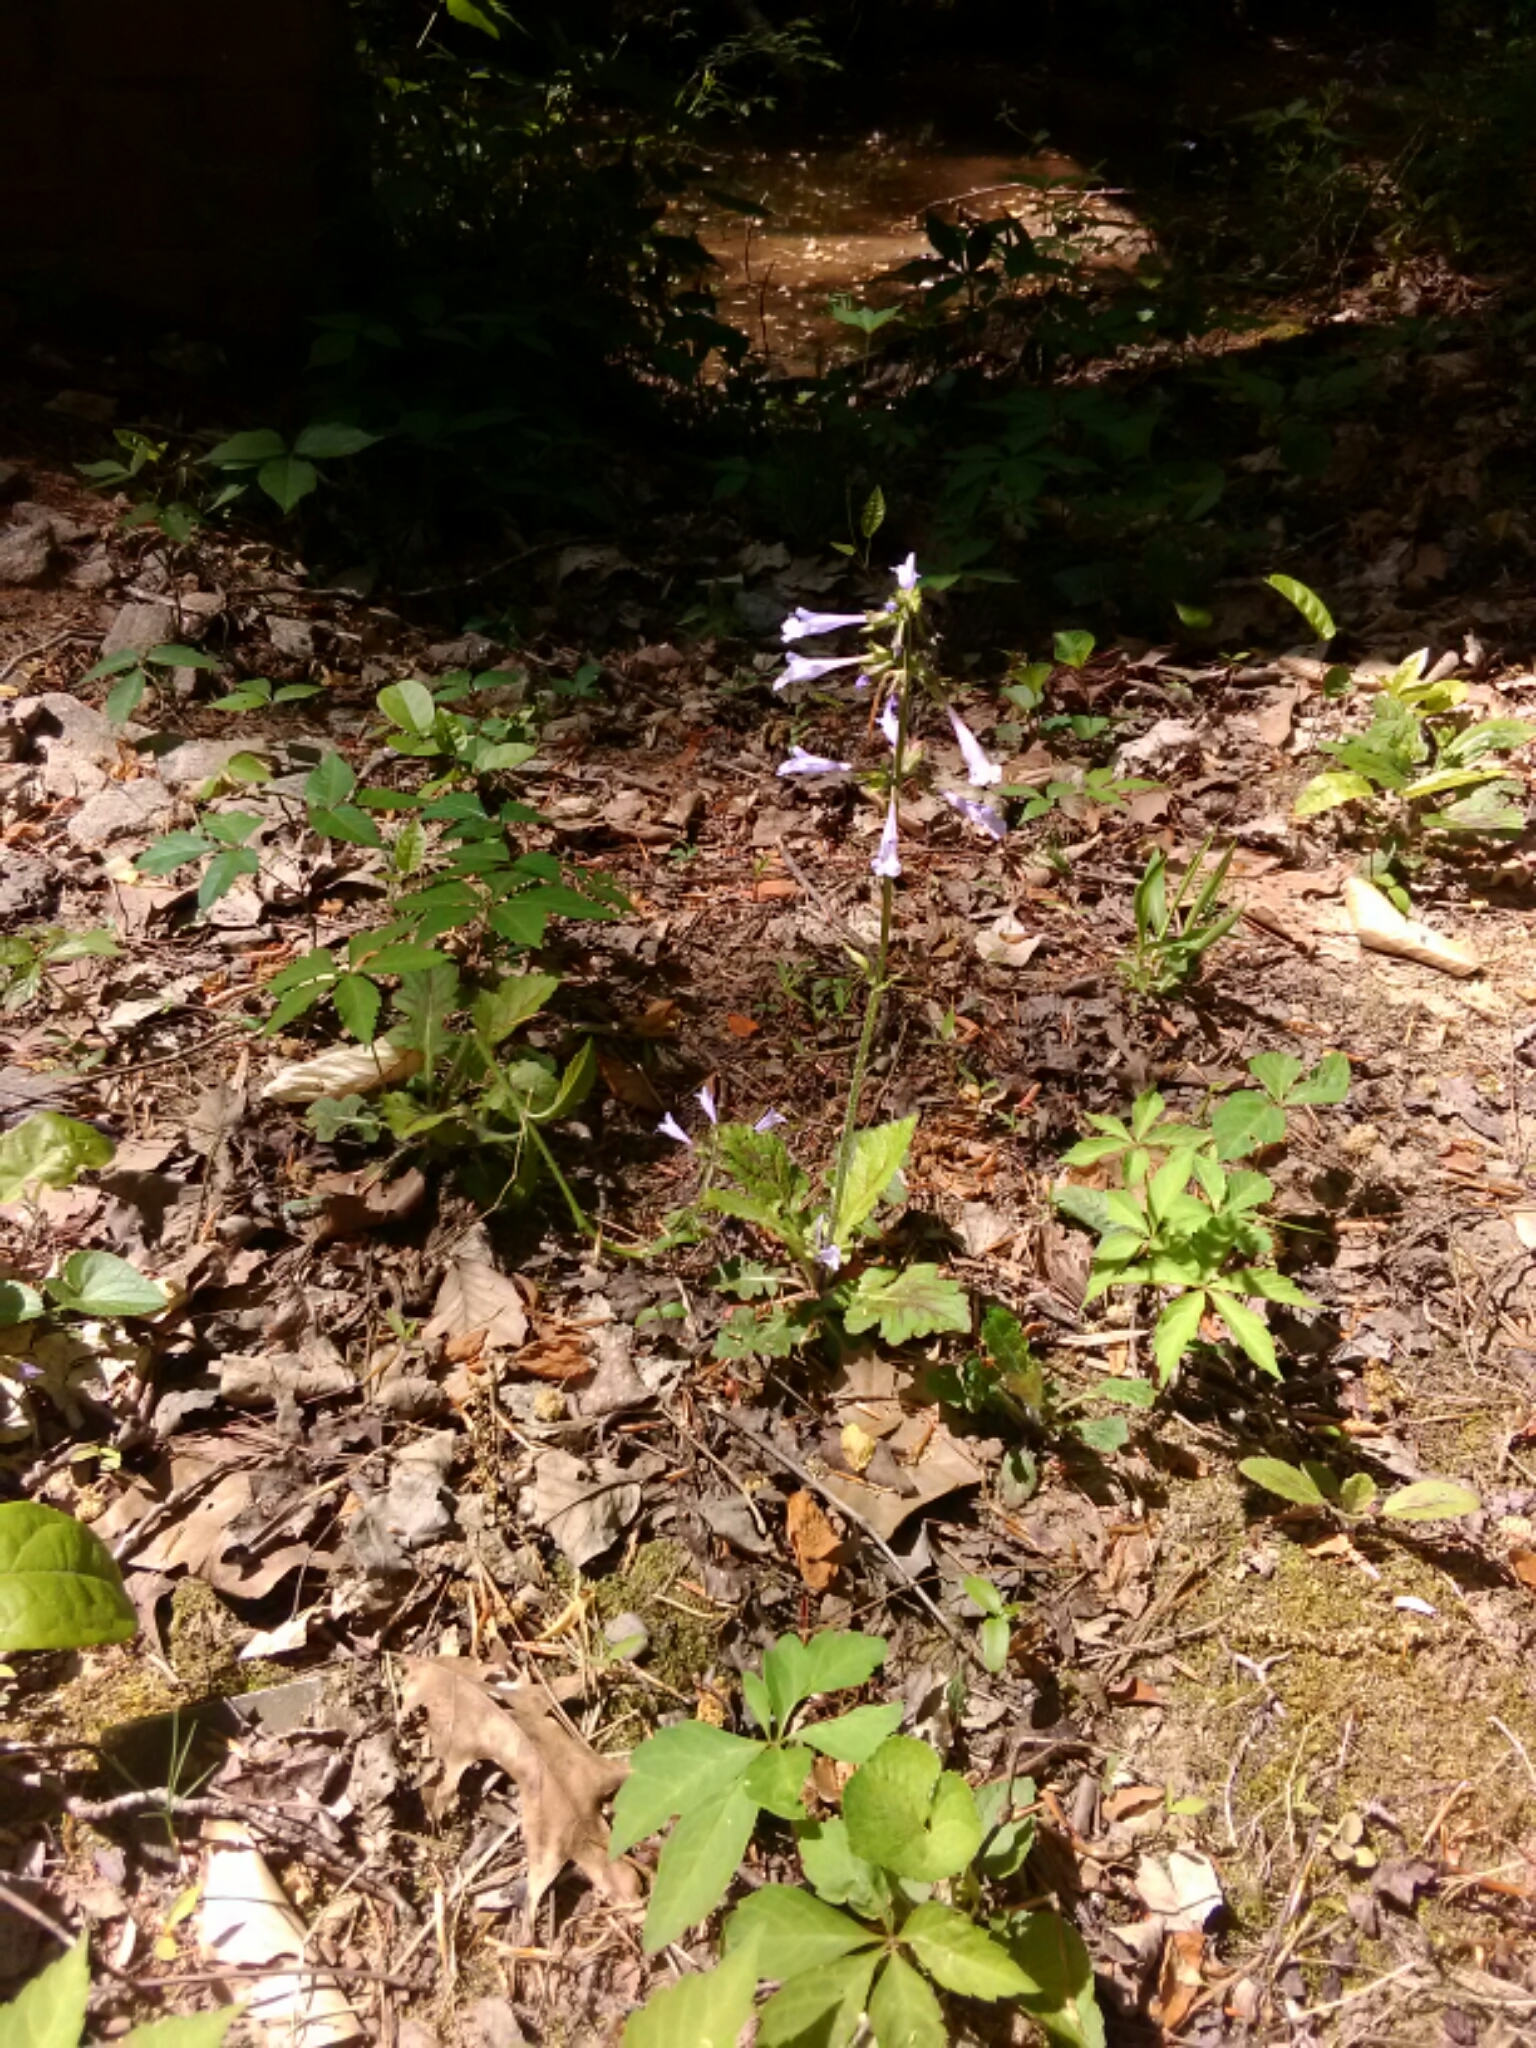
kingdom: Plantae
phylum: Tracheophyta
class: Magnoliopsida
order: Lamiales
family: Lamiaceae
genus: Salvia
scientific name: Salvia lyrata
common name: Cancerweed
